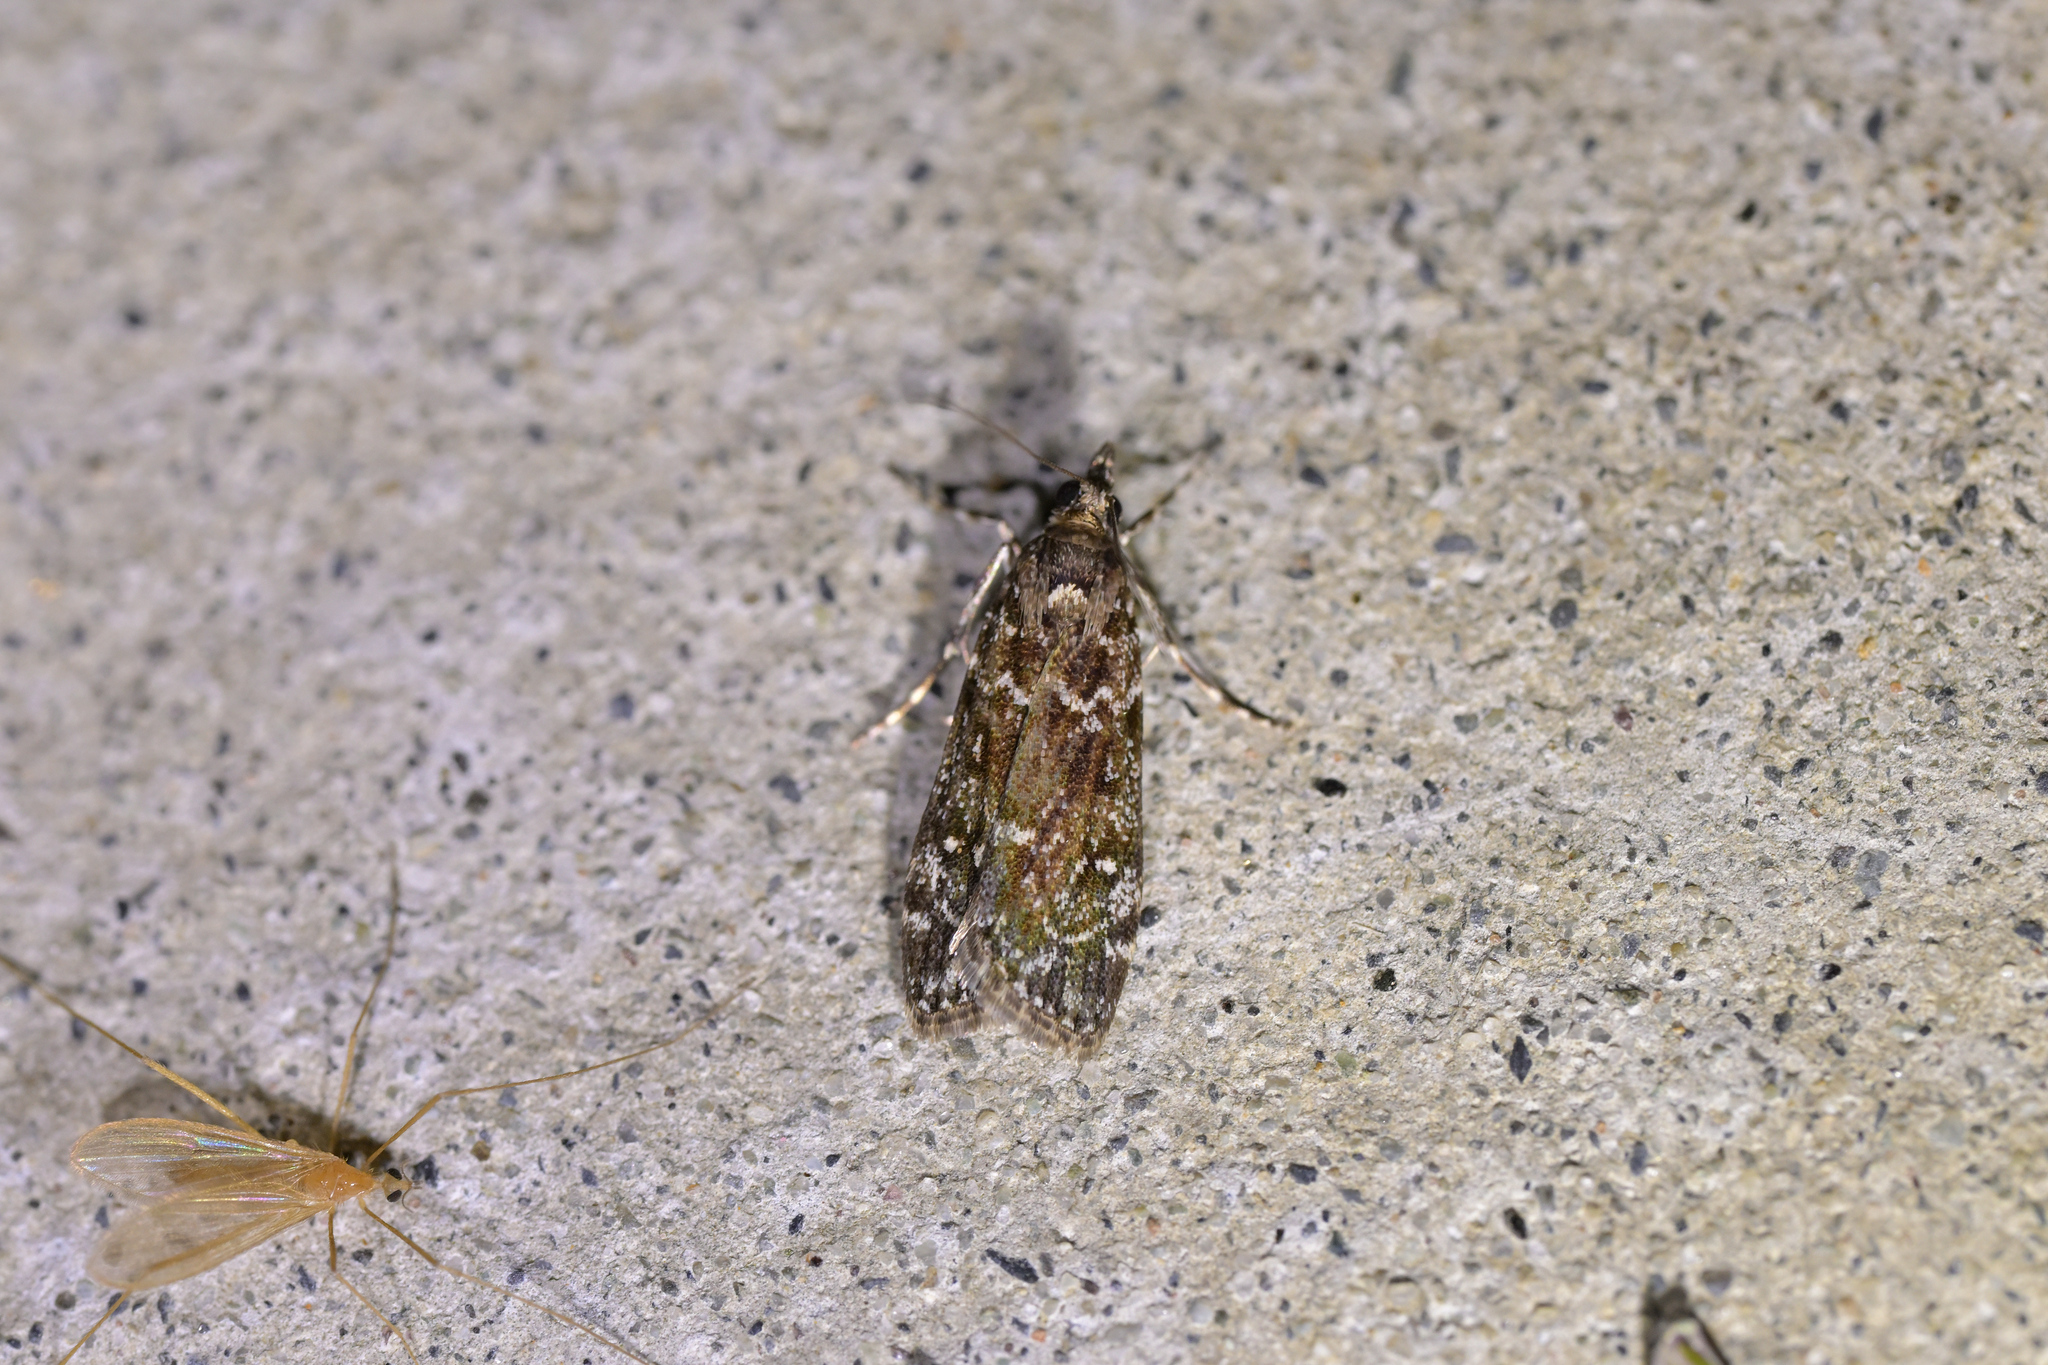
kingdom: Animalia
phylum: Arthropoda
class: Insecta
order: Lepidoptera
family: Crambidae
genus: Eudonia
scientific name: Eudonia philerga
